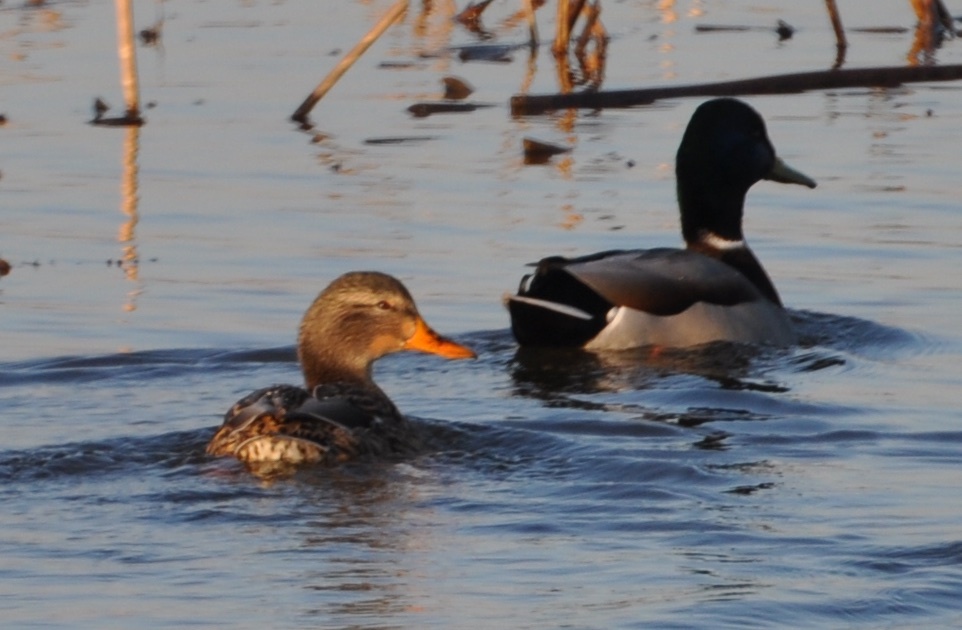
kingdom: Animalia
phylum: Chordata
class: Aves
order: Anseriformes
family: Anatidae
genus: Anas
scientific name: Anas platyrhynchos
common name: Mallard
